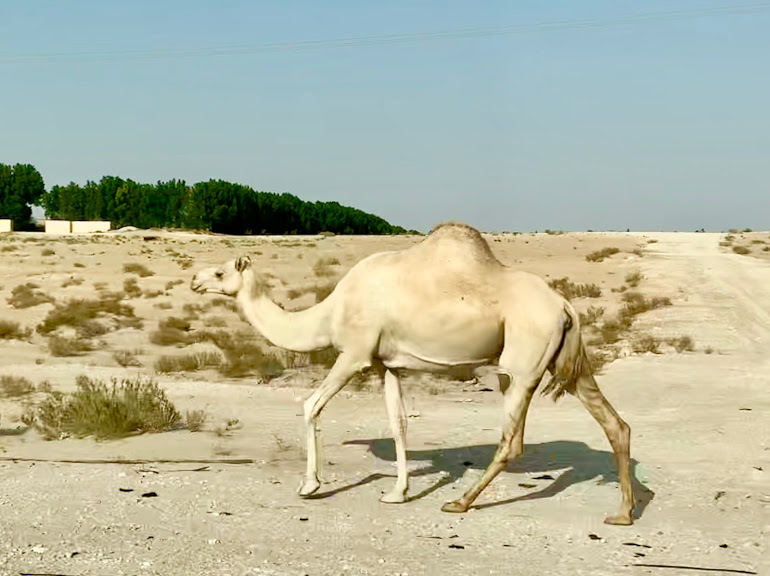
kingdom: Animalia
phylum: Chordata
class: Mammalia
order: Artiodactyla
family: Camelidae
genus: Camelus
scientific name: Camelus dromedarius
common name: One-humped camel
